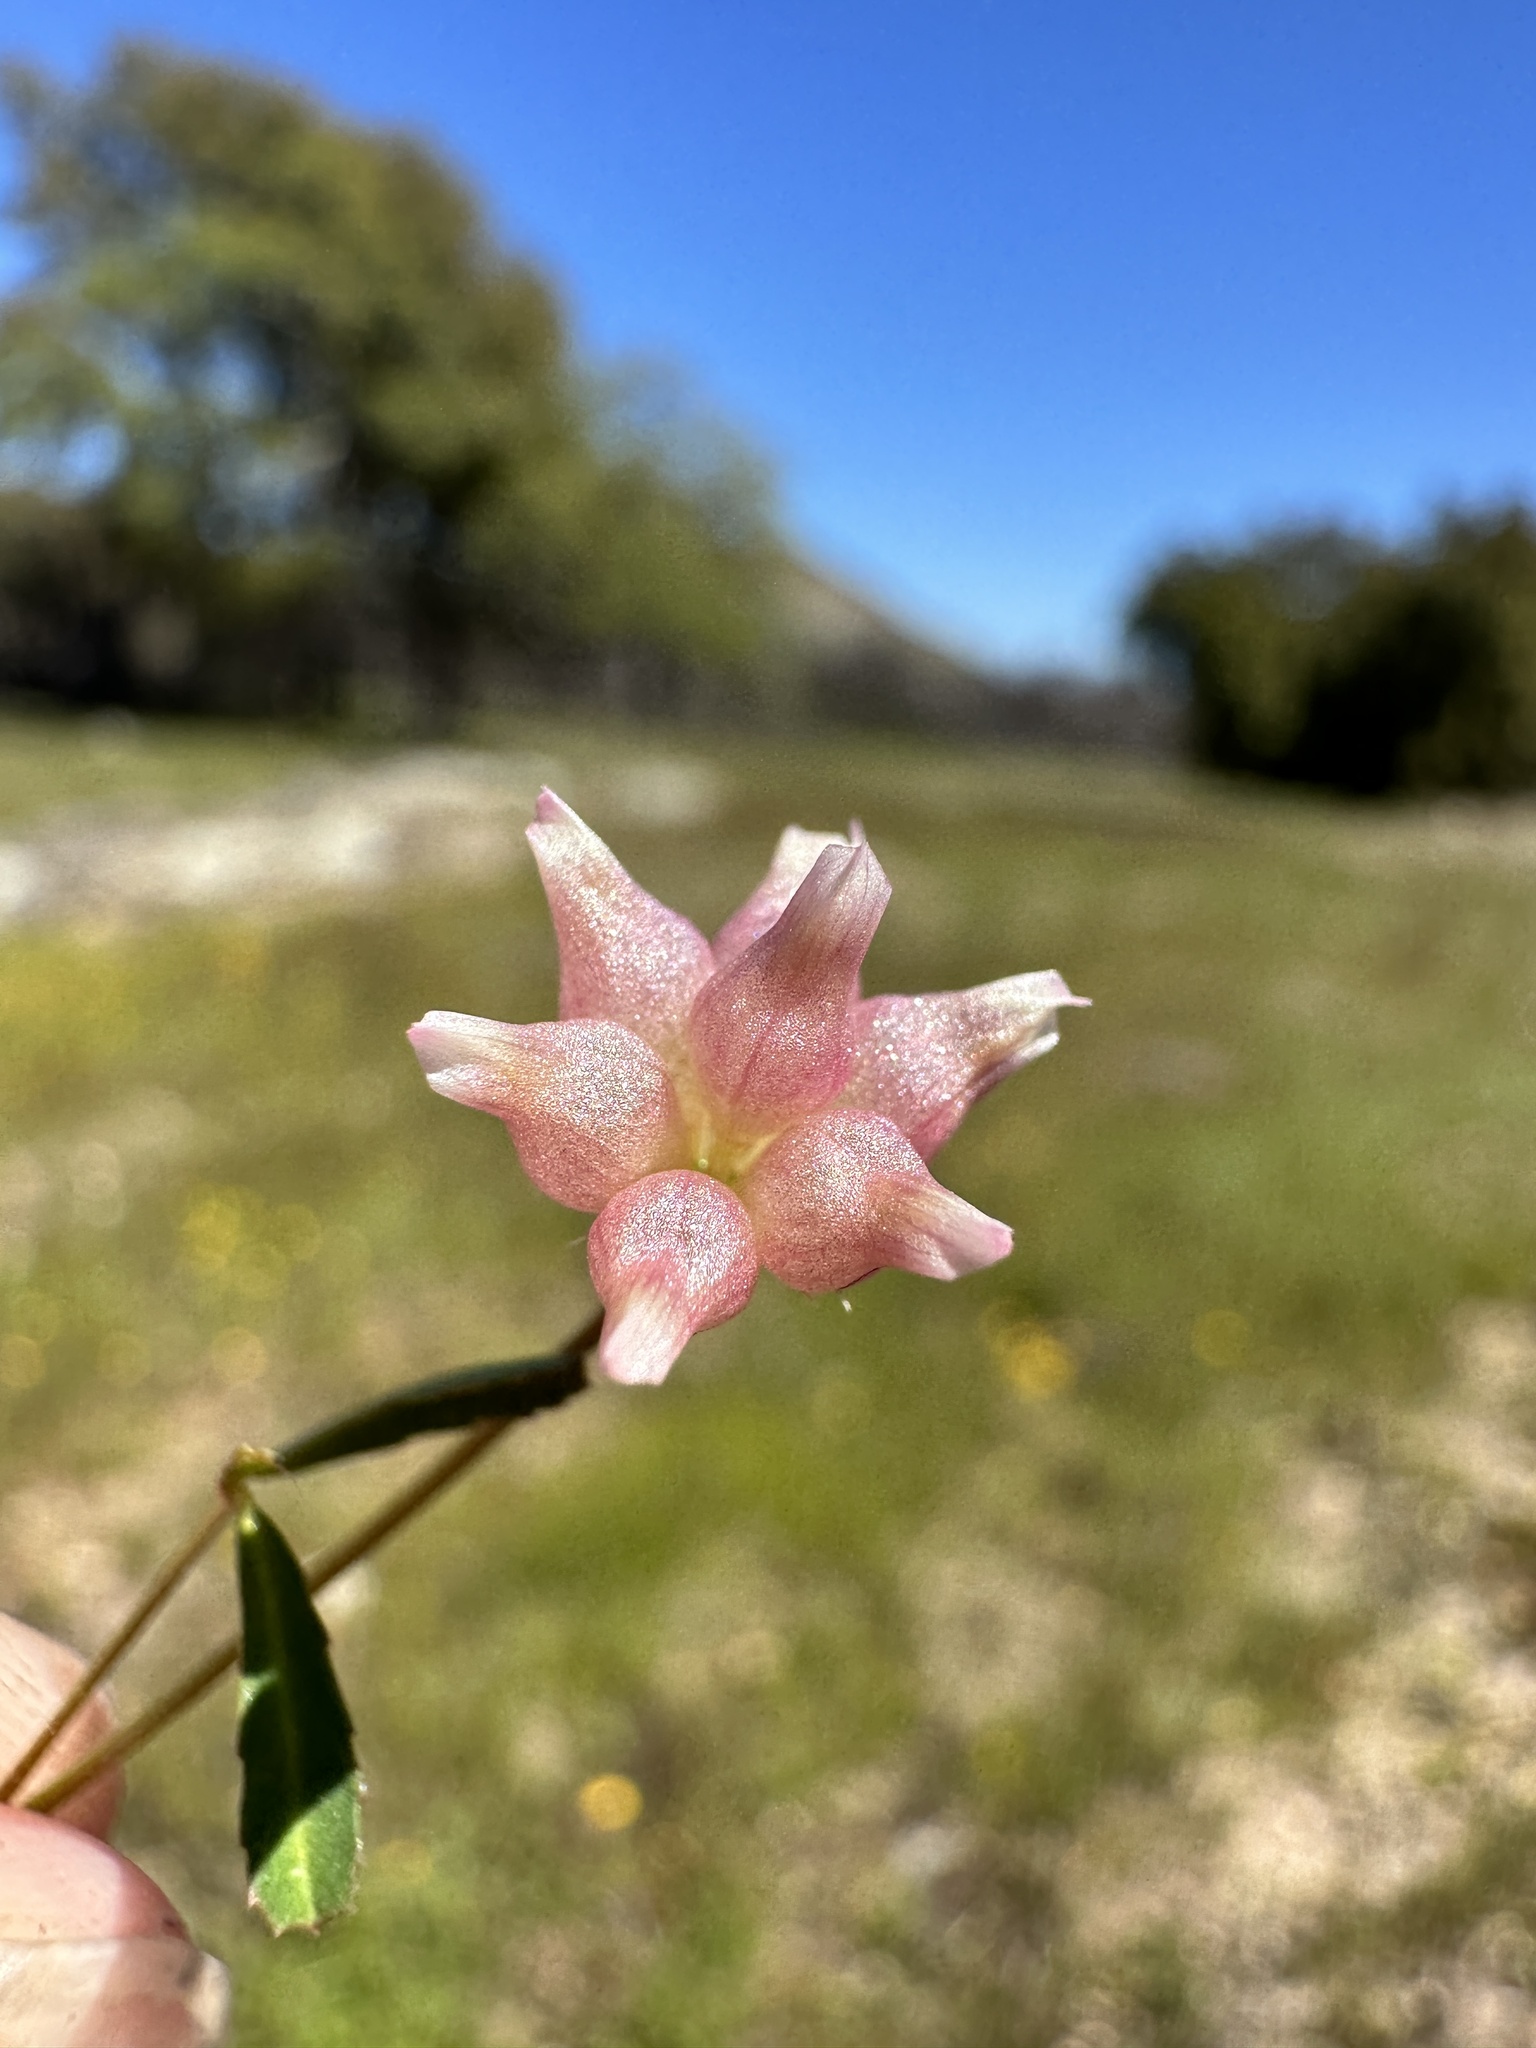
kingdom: Plantae
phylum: Tracheophyta
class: Magnoliopsida
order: Fabales
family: Fabaceae
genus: Trifolium
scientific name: Trifolium depauperatum
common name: Poverty clover
